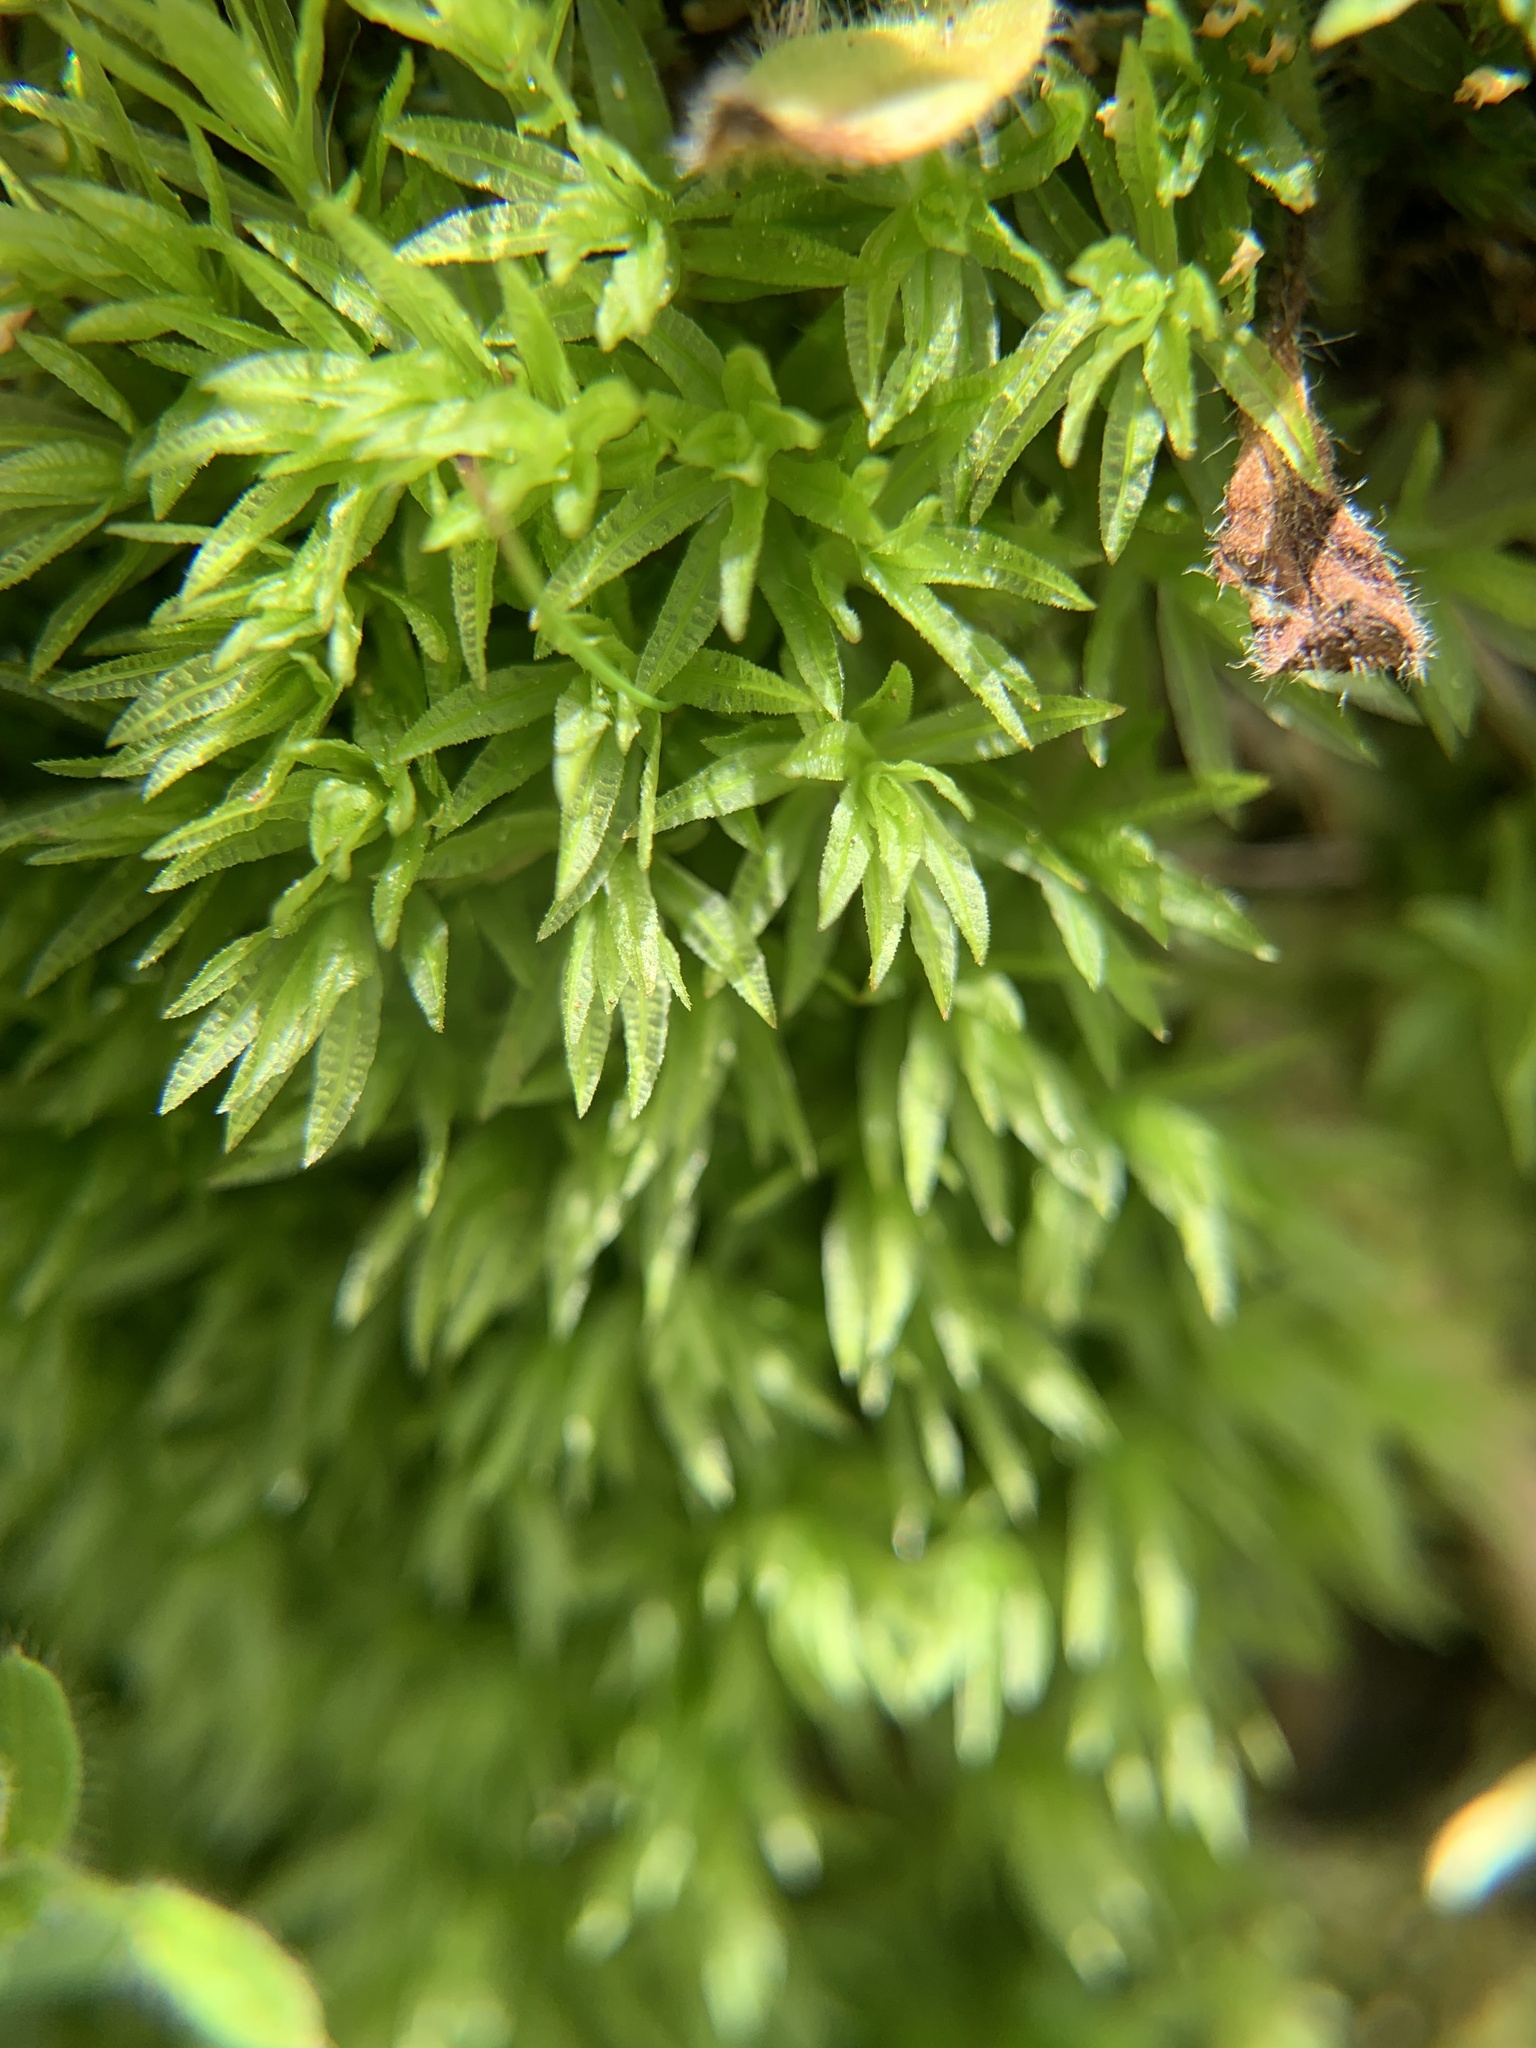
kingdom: Plantae
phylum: Bryophyta
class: Polytrichopsida
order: Polytrichales
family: Polytrichaceae
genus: Atrichum
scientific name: Atrichum undulatum
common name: Common smoothcap
